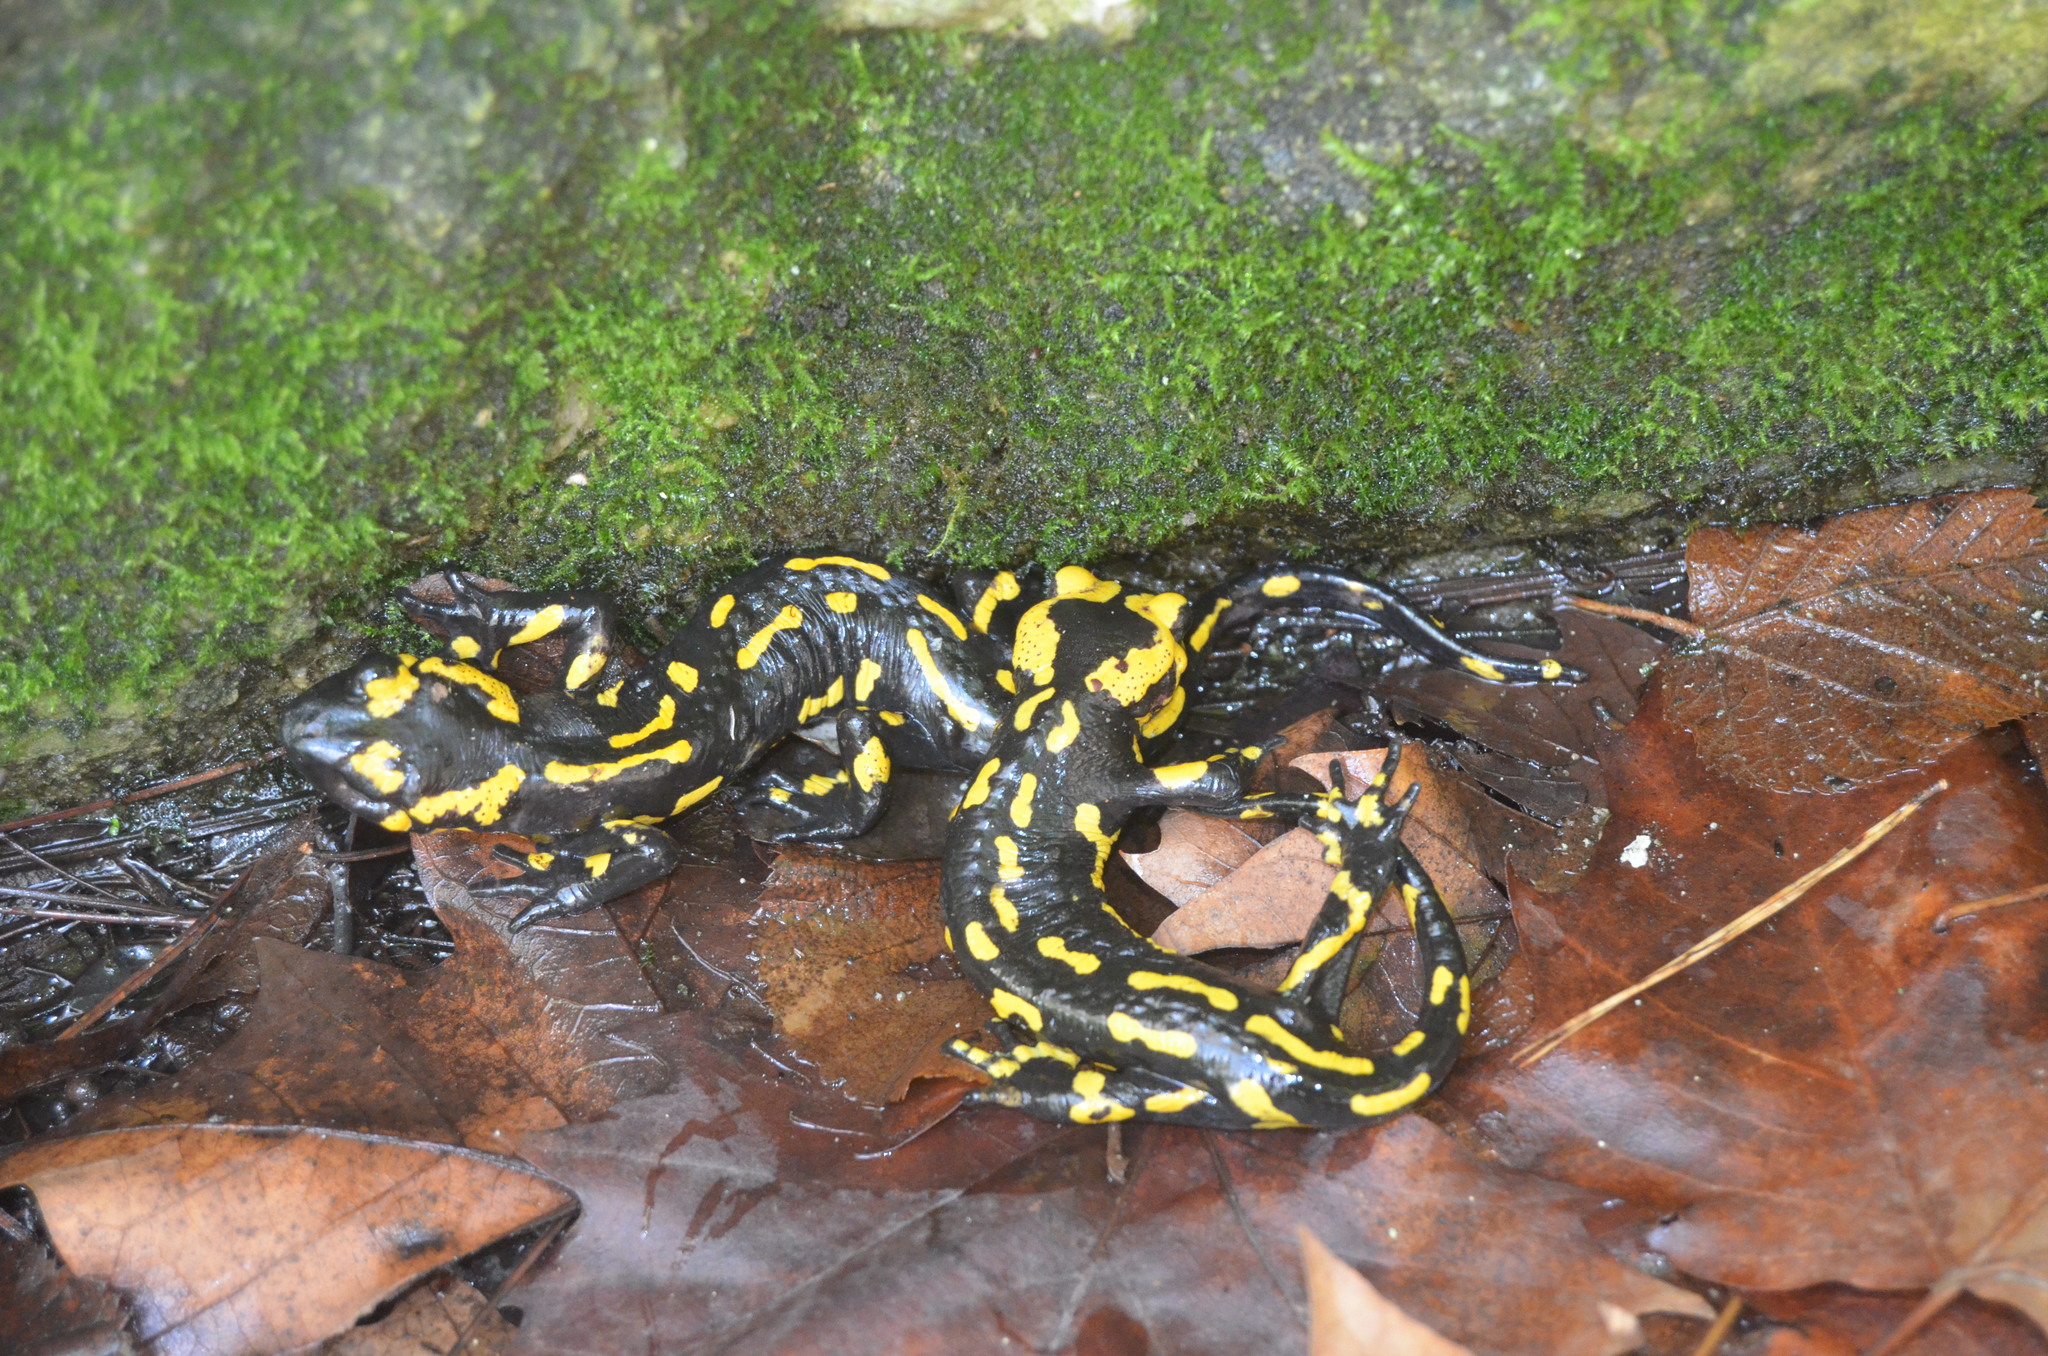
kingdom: Animalia
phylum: Chordata
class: Amphibia
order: Caudata
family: Salamandridae
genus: Salamandra
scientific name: Salamandra salamandra
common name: Fire salamander
